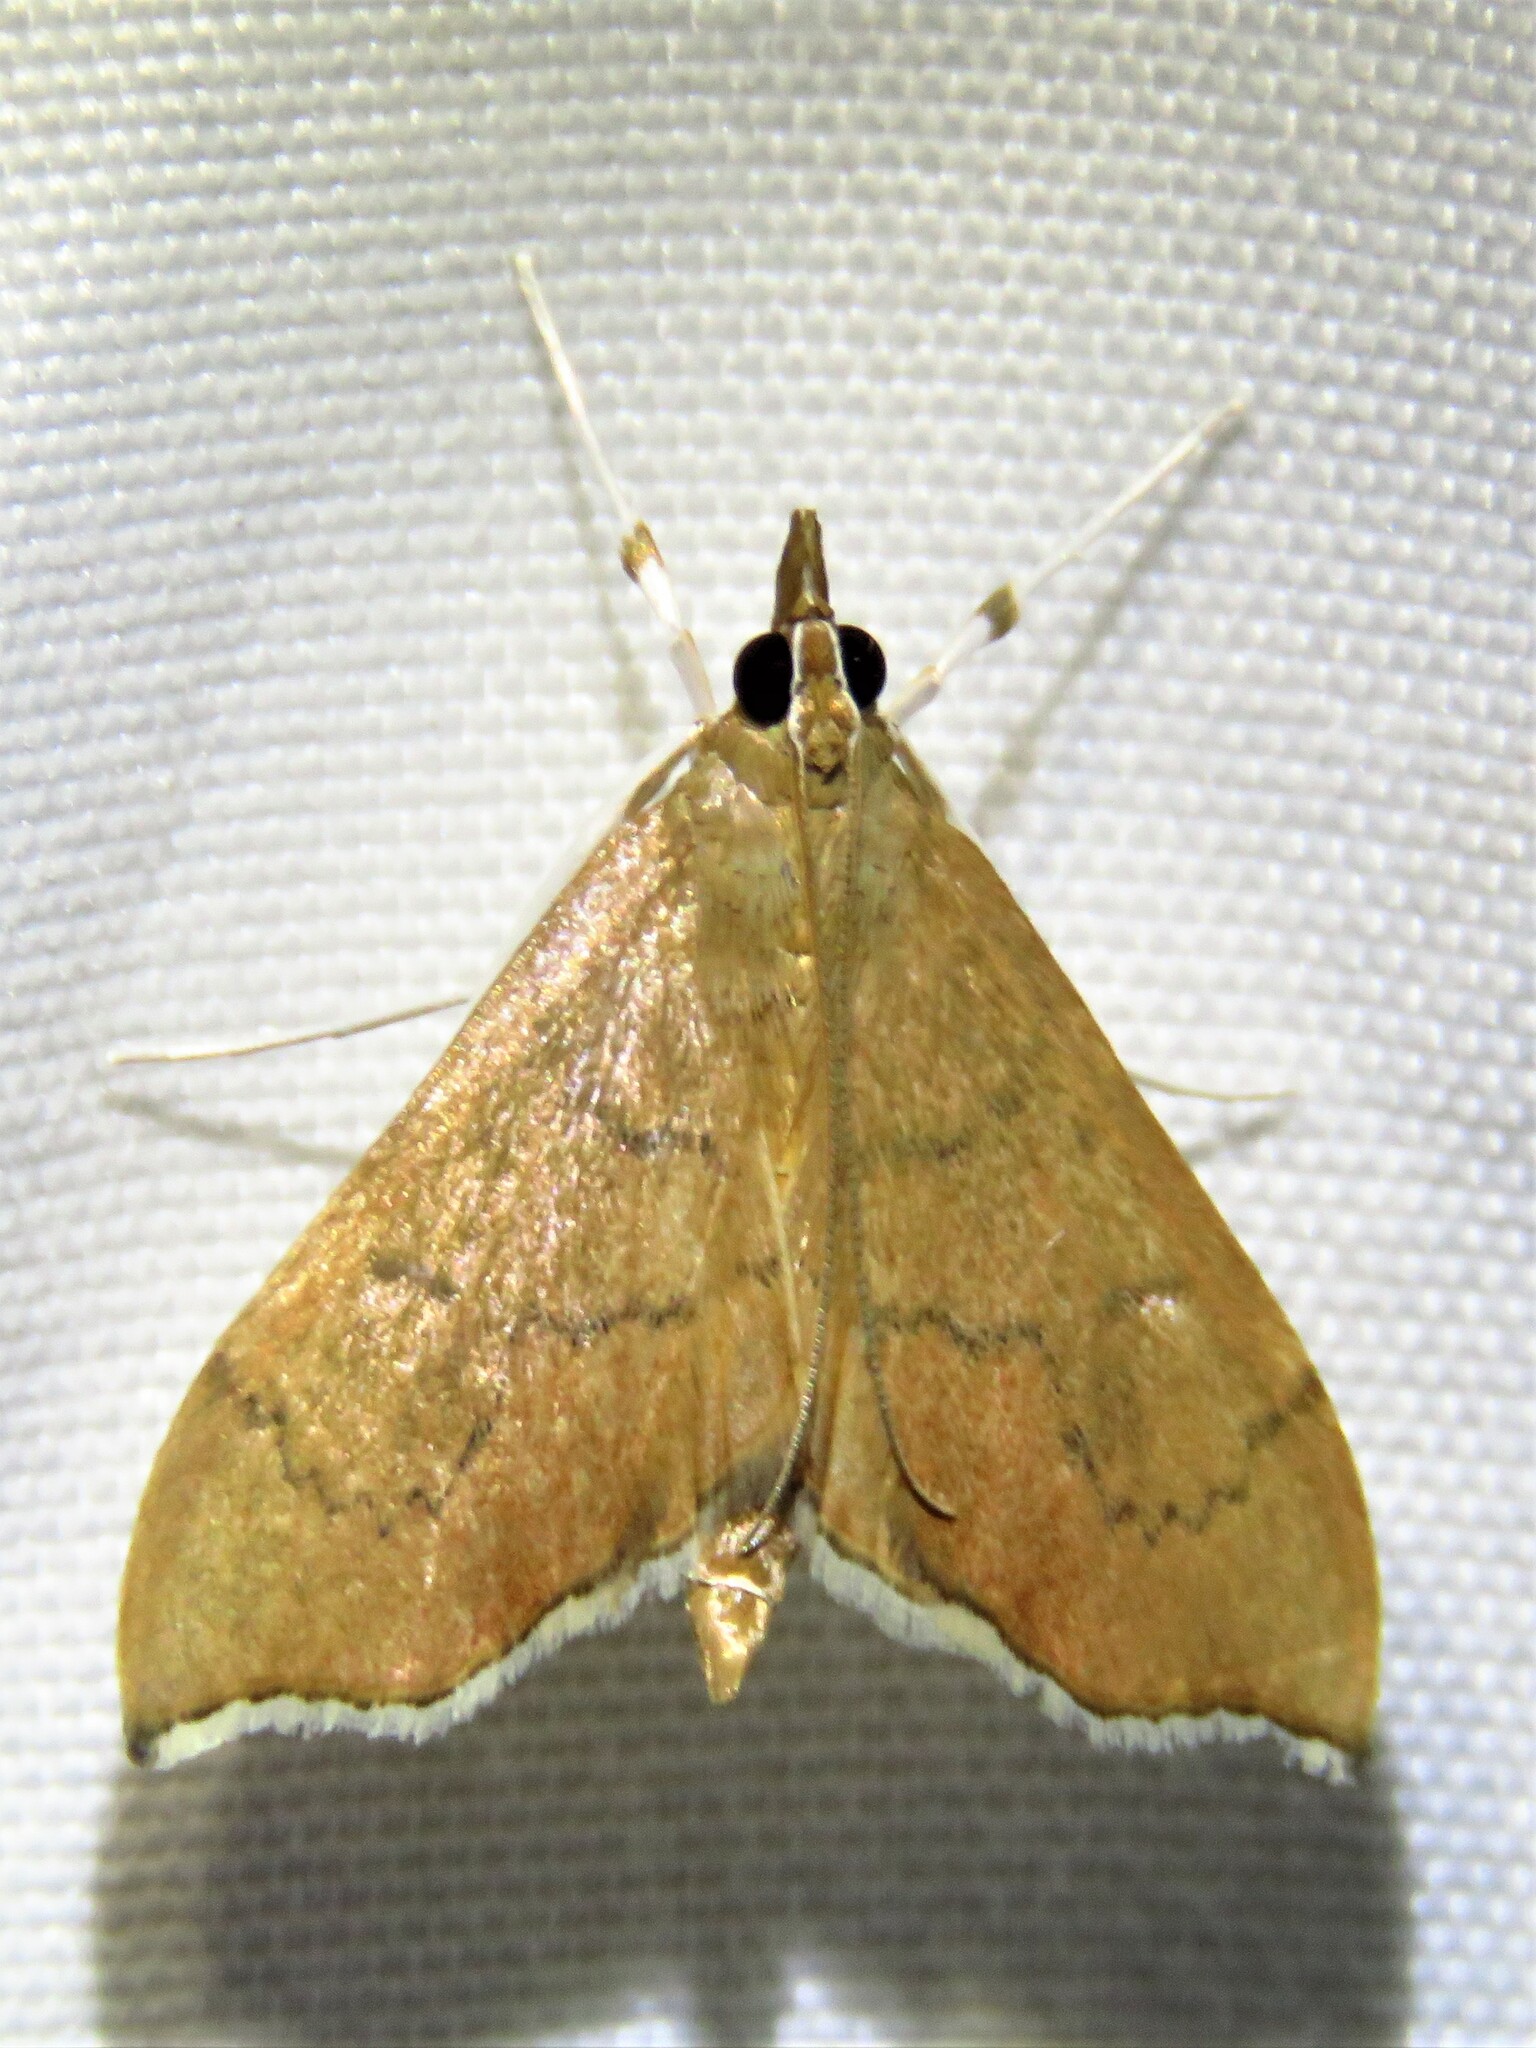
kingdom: Animalia
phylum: Arthropoda
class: Insecta
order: Lepidoptera
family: Crambidae
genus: Sericoplaga
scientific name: Sericoplaga externalis
